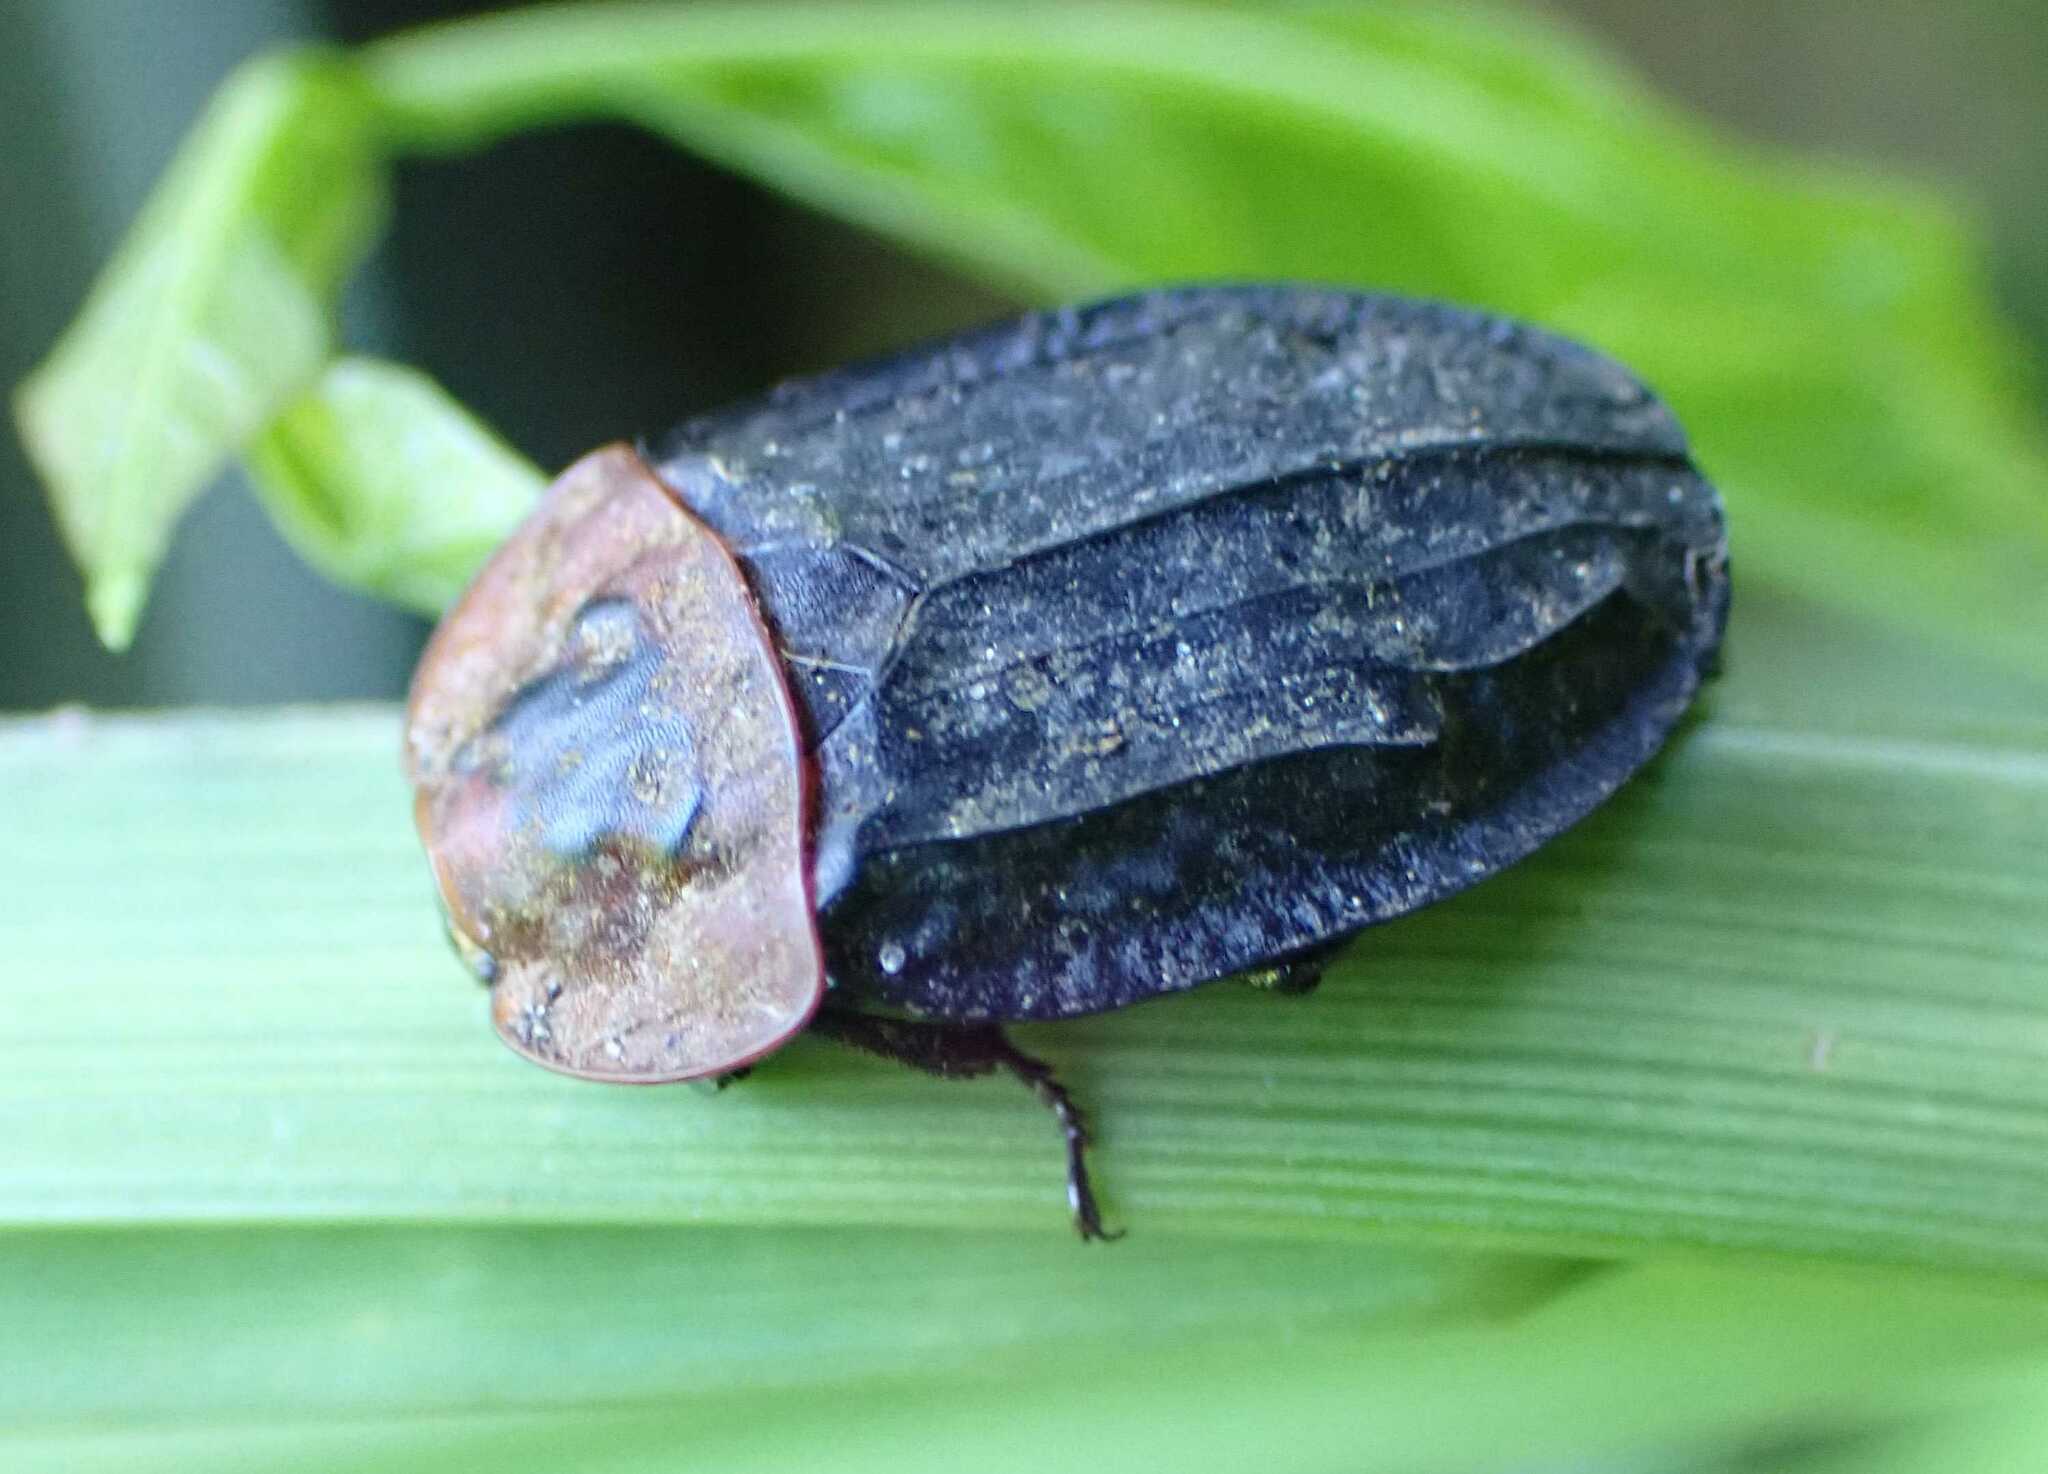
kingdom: Animalia
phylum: Arthropoda
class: Insecta
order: Coleoptera
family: Staphylinidae
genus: Oiceoptoma
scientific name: Oiceoptoma thoracicum
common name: Red-breasted carrion beetle
